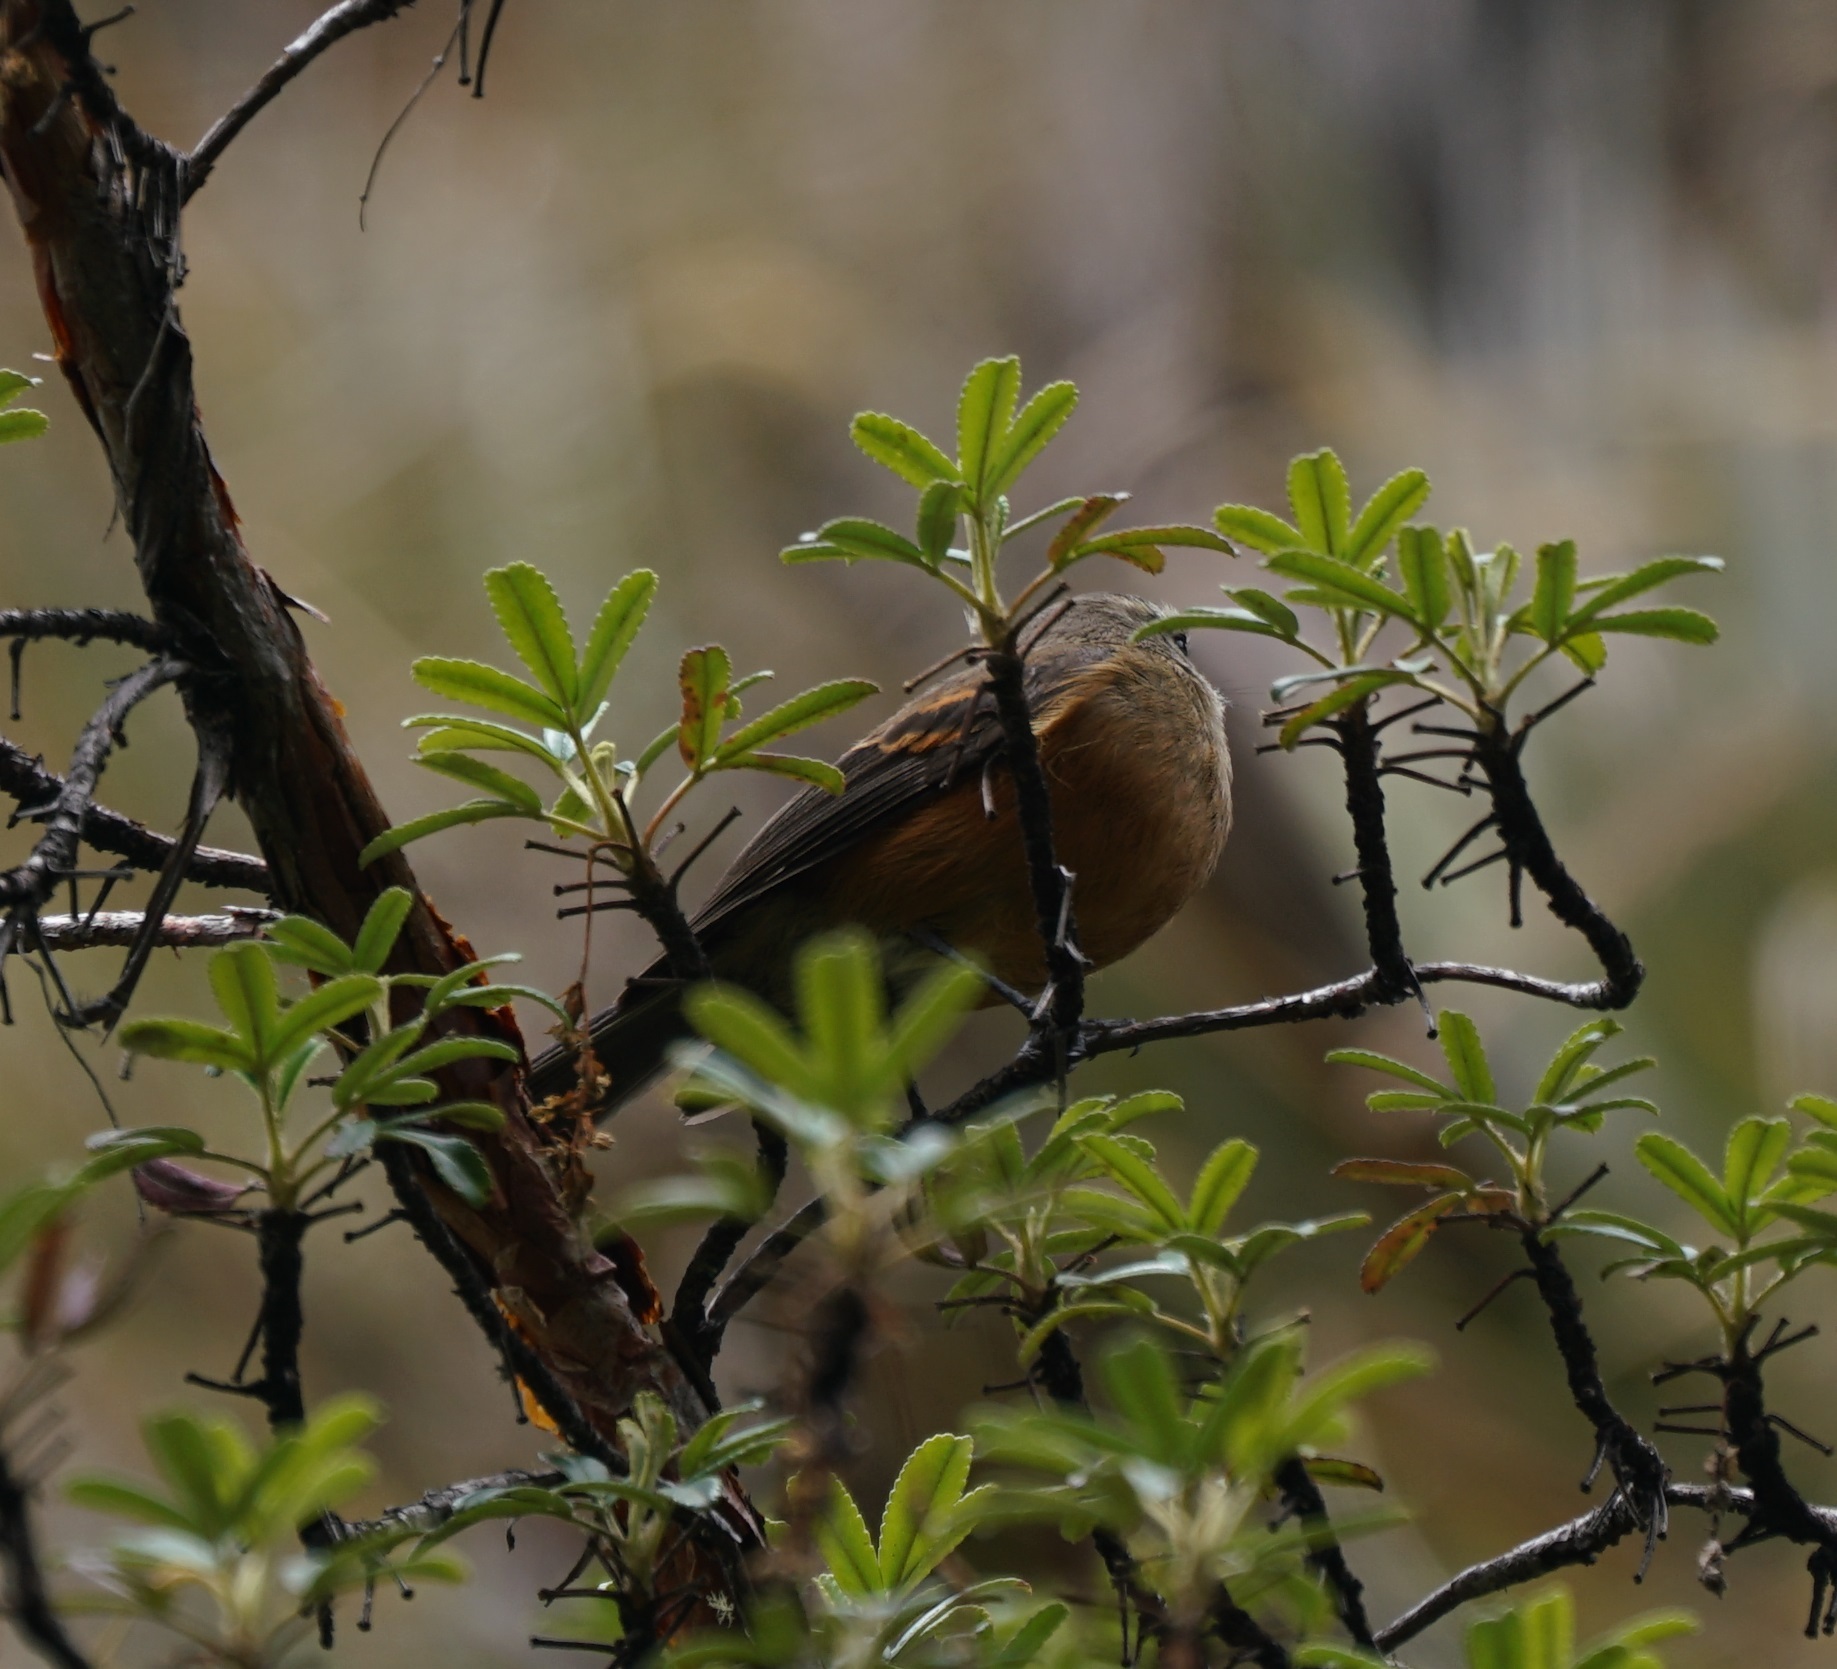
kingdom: Animalia
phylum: Chordata
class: Aves
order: Passeriformes
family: Tyrannidae
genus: Ochthoeca
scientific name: Ochthoeca fumicolor
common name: Brown-backed chat-tyrant
